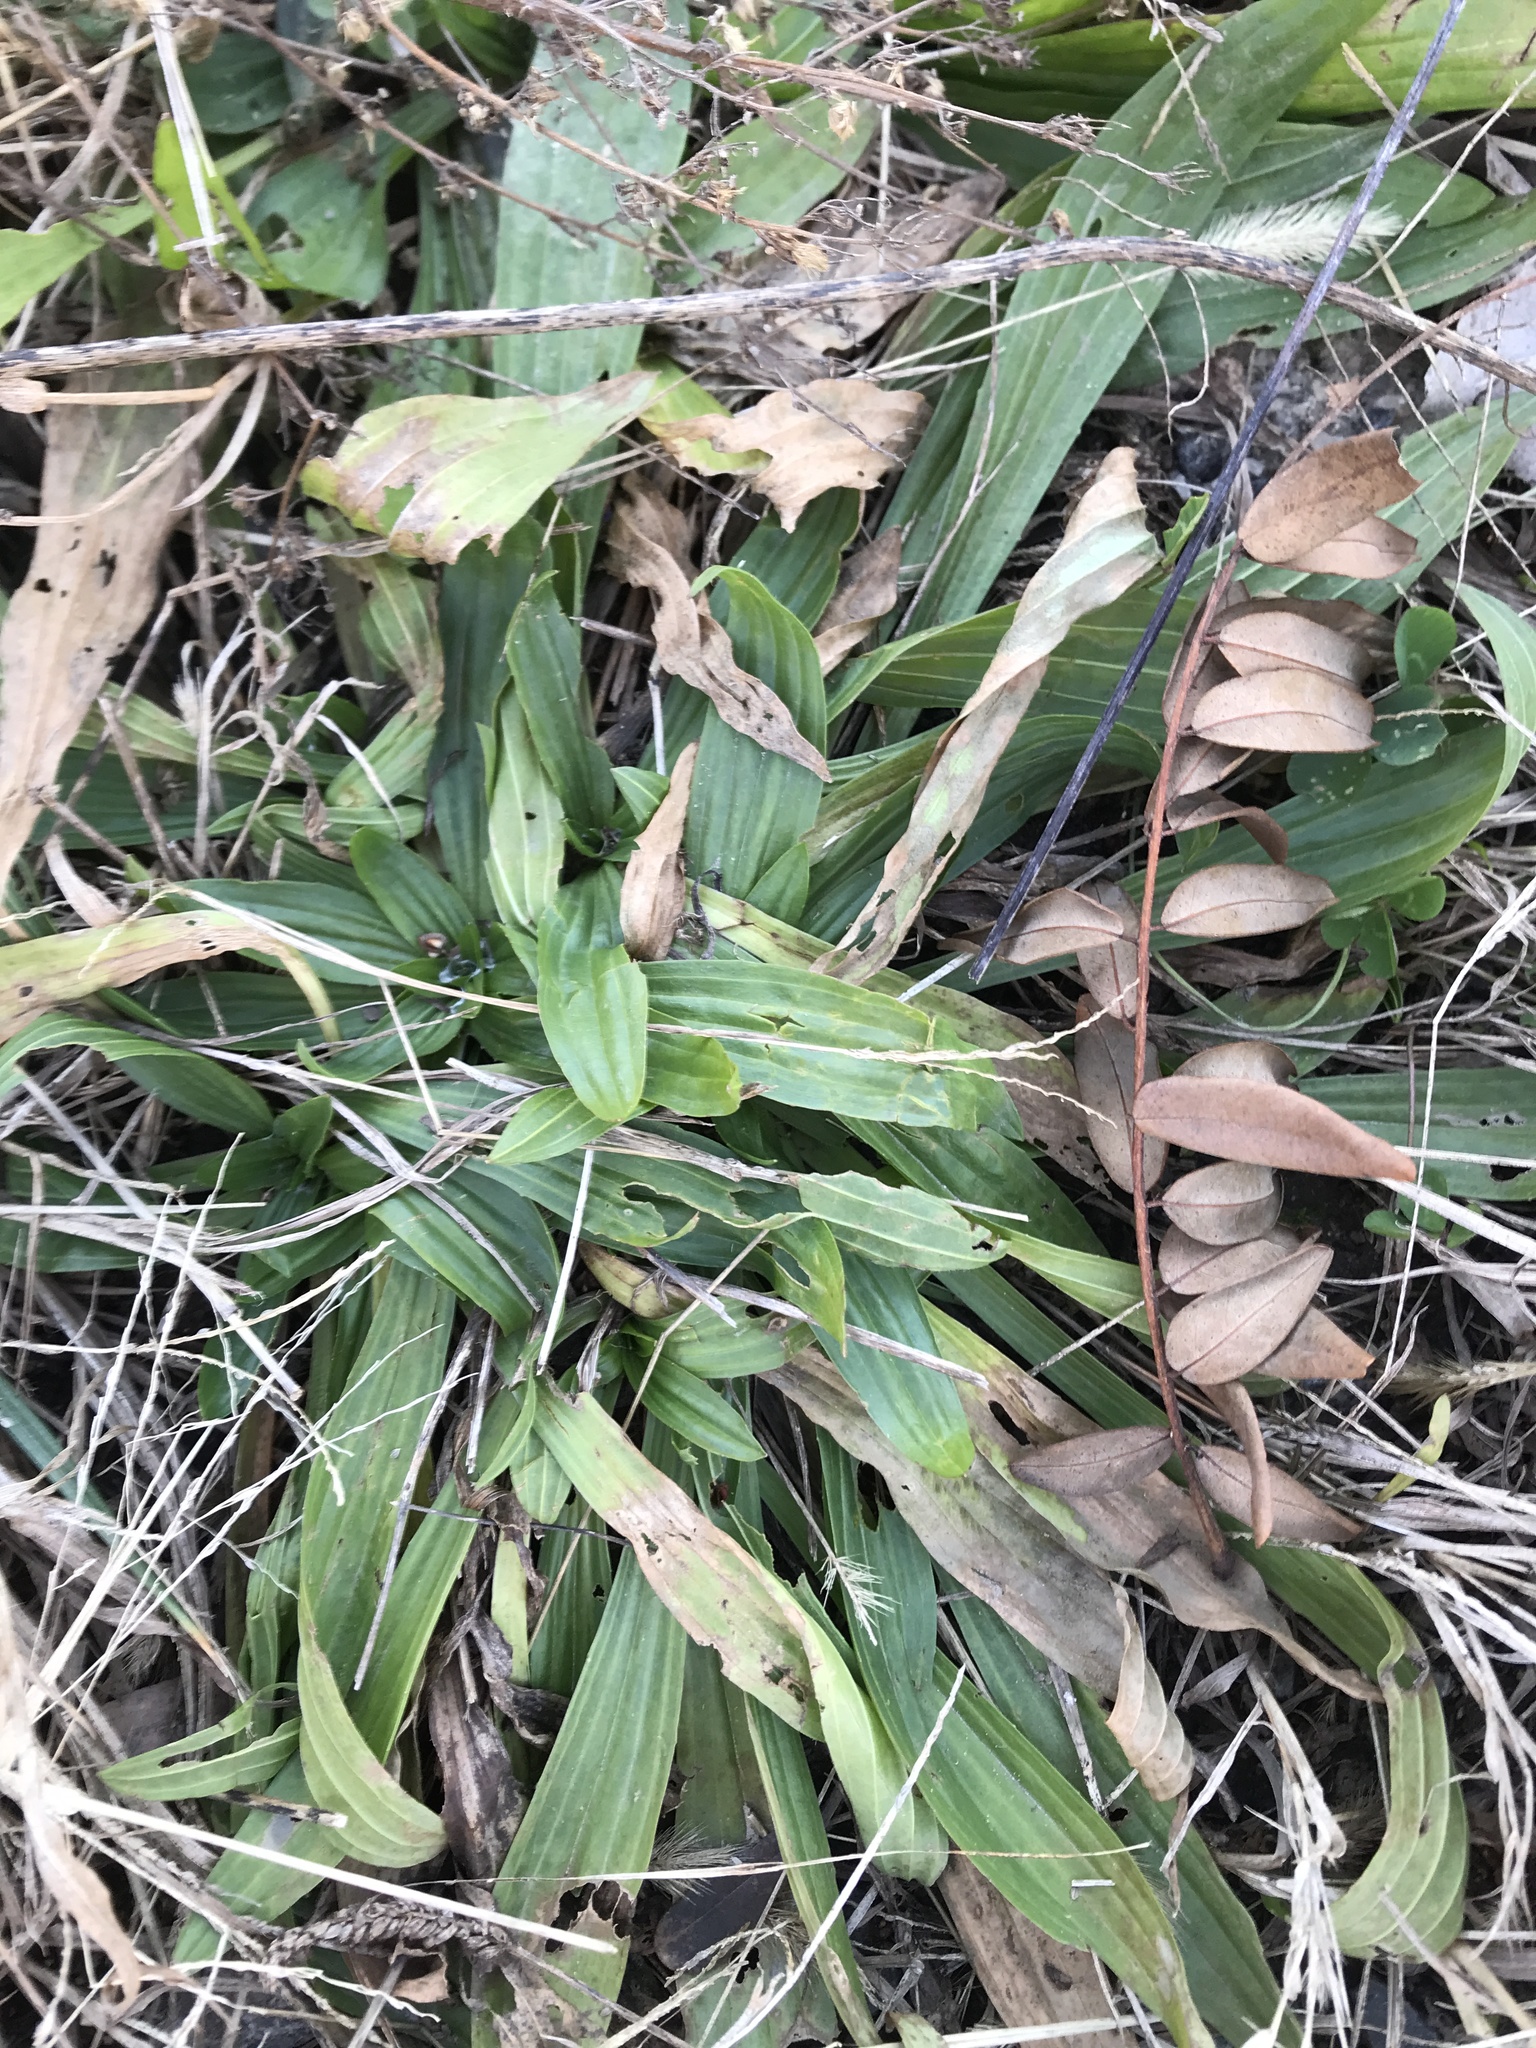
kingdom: Plantae
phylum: Tracheophyta
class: Magnoliopsida
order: Lamiales
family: Plantaginaceae
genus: Plantago
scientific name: Plantago lanceolata
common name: Ribwort plantain
